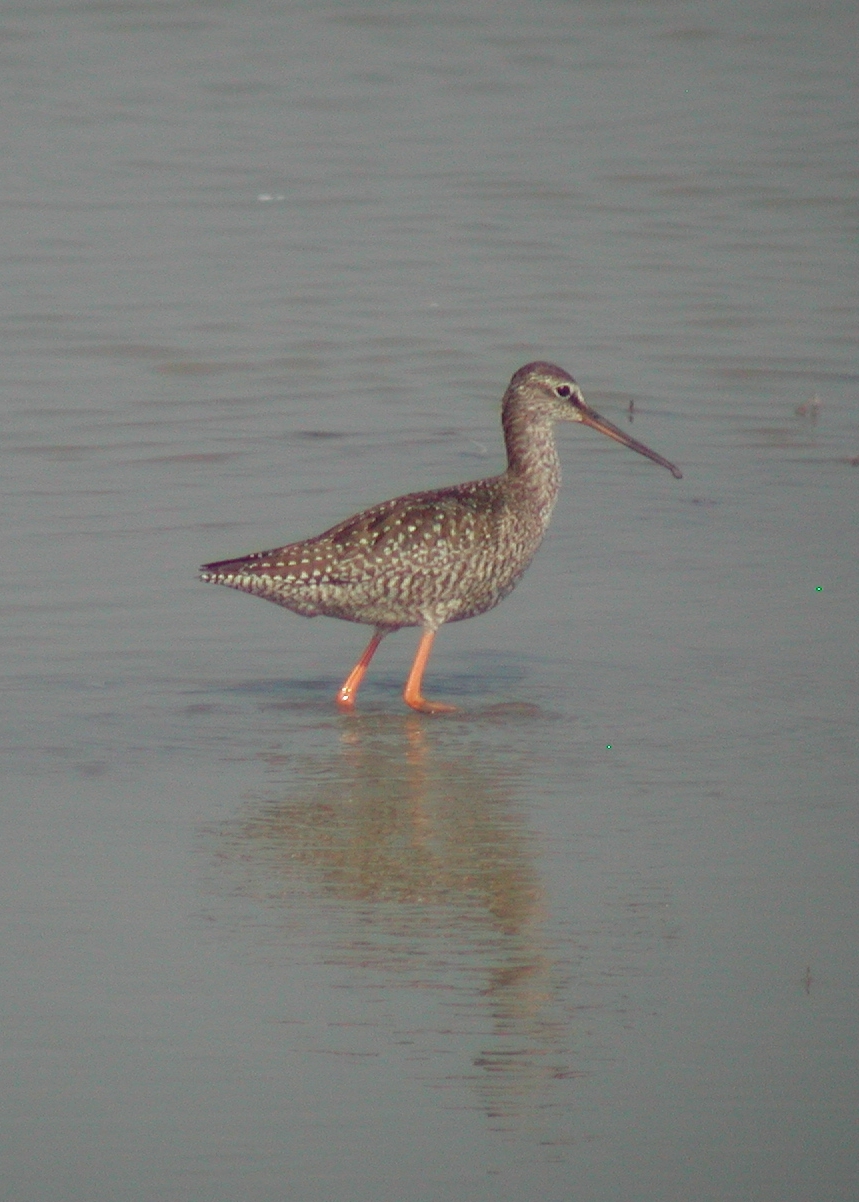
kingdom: Animalia
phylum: Chordata
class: Aves
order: Charadriiformes
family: Scolopacidae
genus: Tringa
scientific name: Tringa erythropus
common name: Spotted redshank
